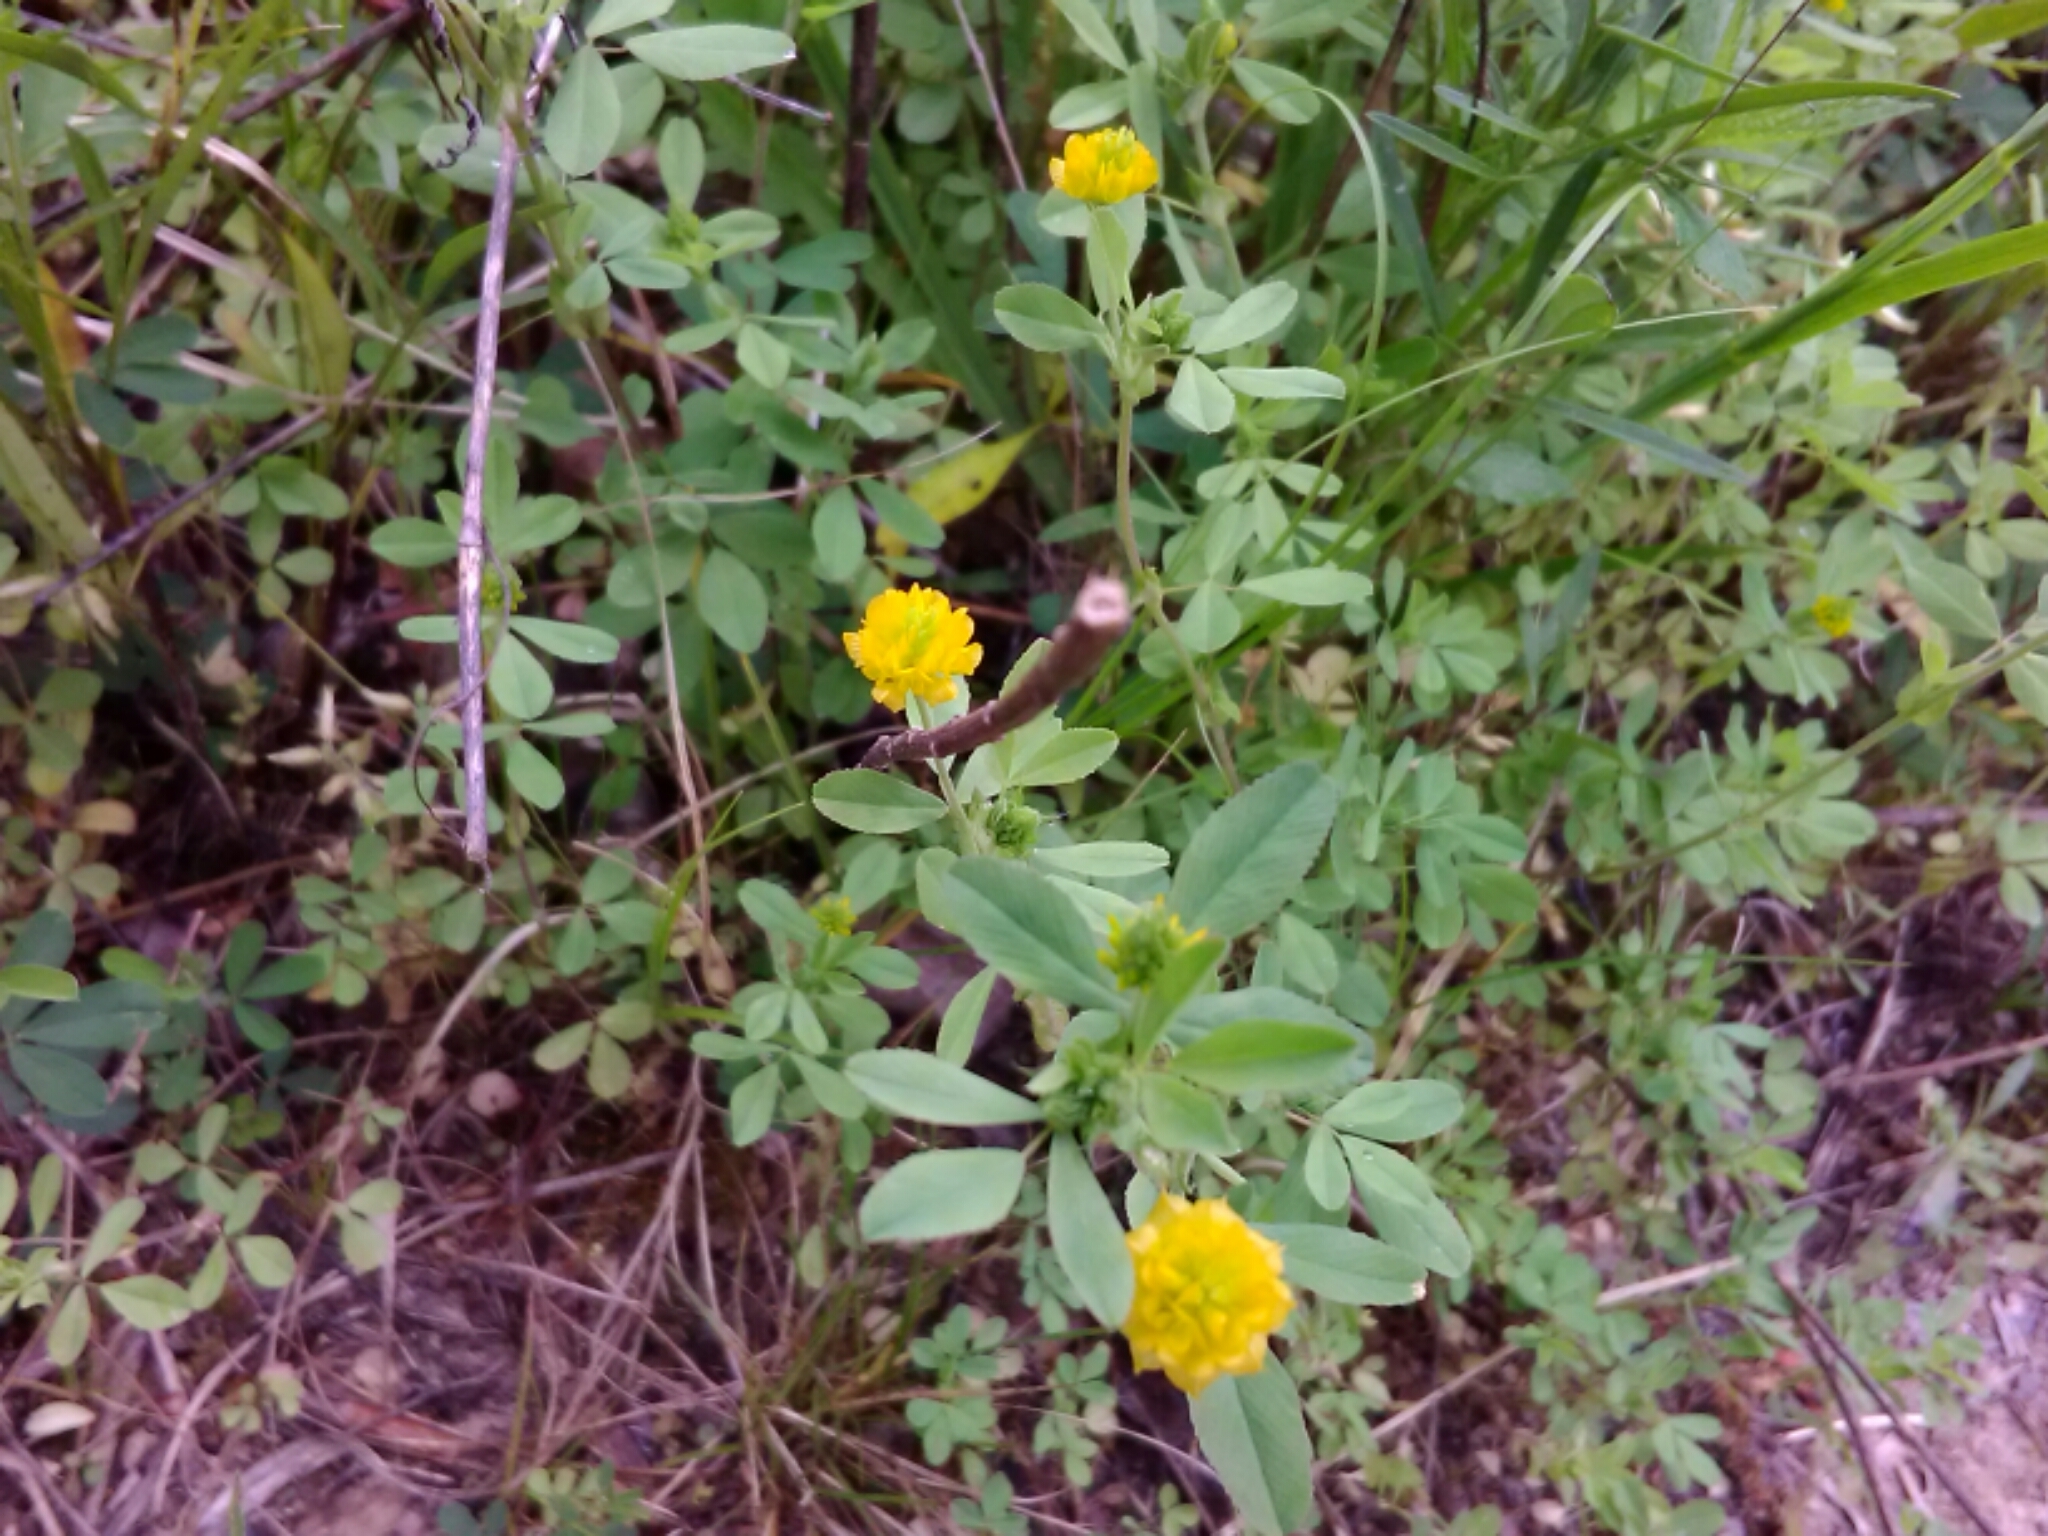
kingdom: Plantae
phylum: Tracheophyta
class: Magnoliopsida
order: Fabales
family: Fabaceae
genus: Trifolium
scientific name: Trifolium campestre
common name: Field clover
